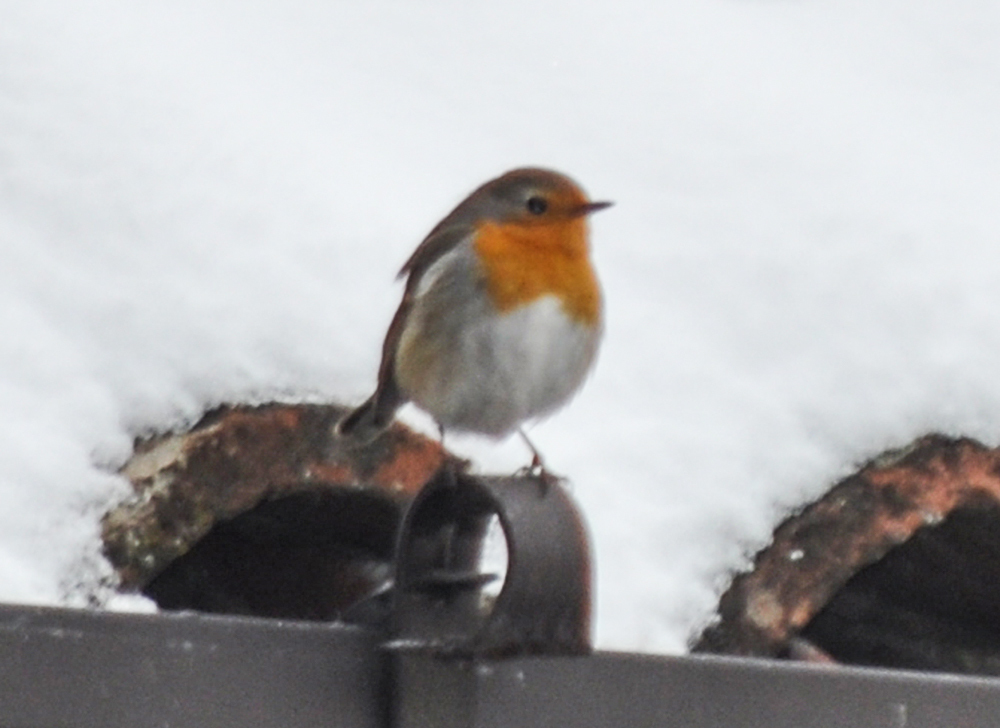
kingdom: Animalia
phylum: Chordata
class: Aves
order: Passeriformes
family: Muscicapidae
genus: Erithacus
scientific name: Erithacus rubecula
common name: European robin
